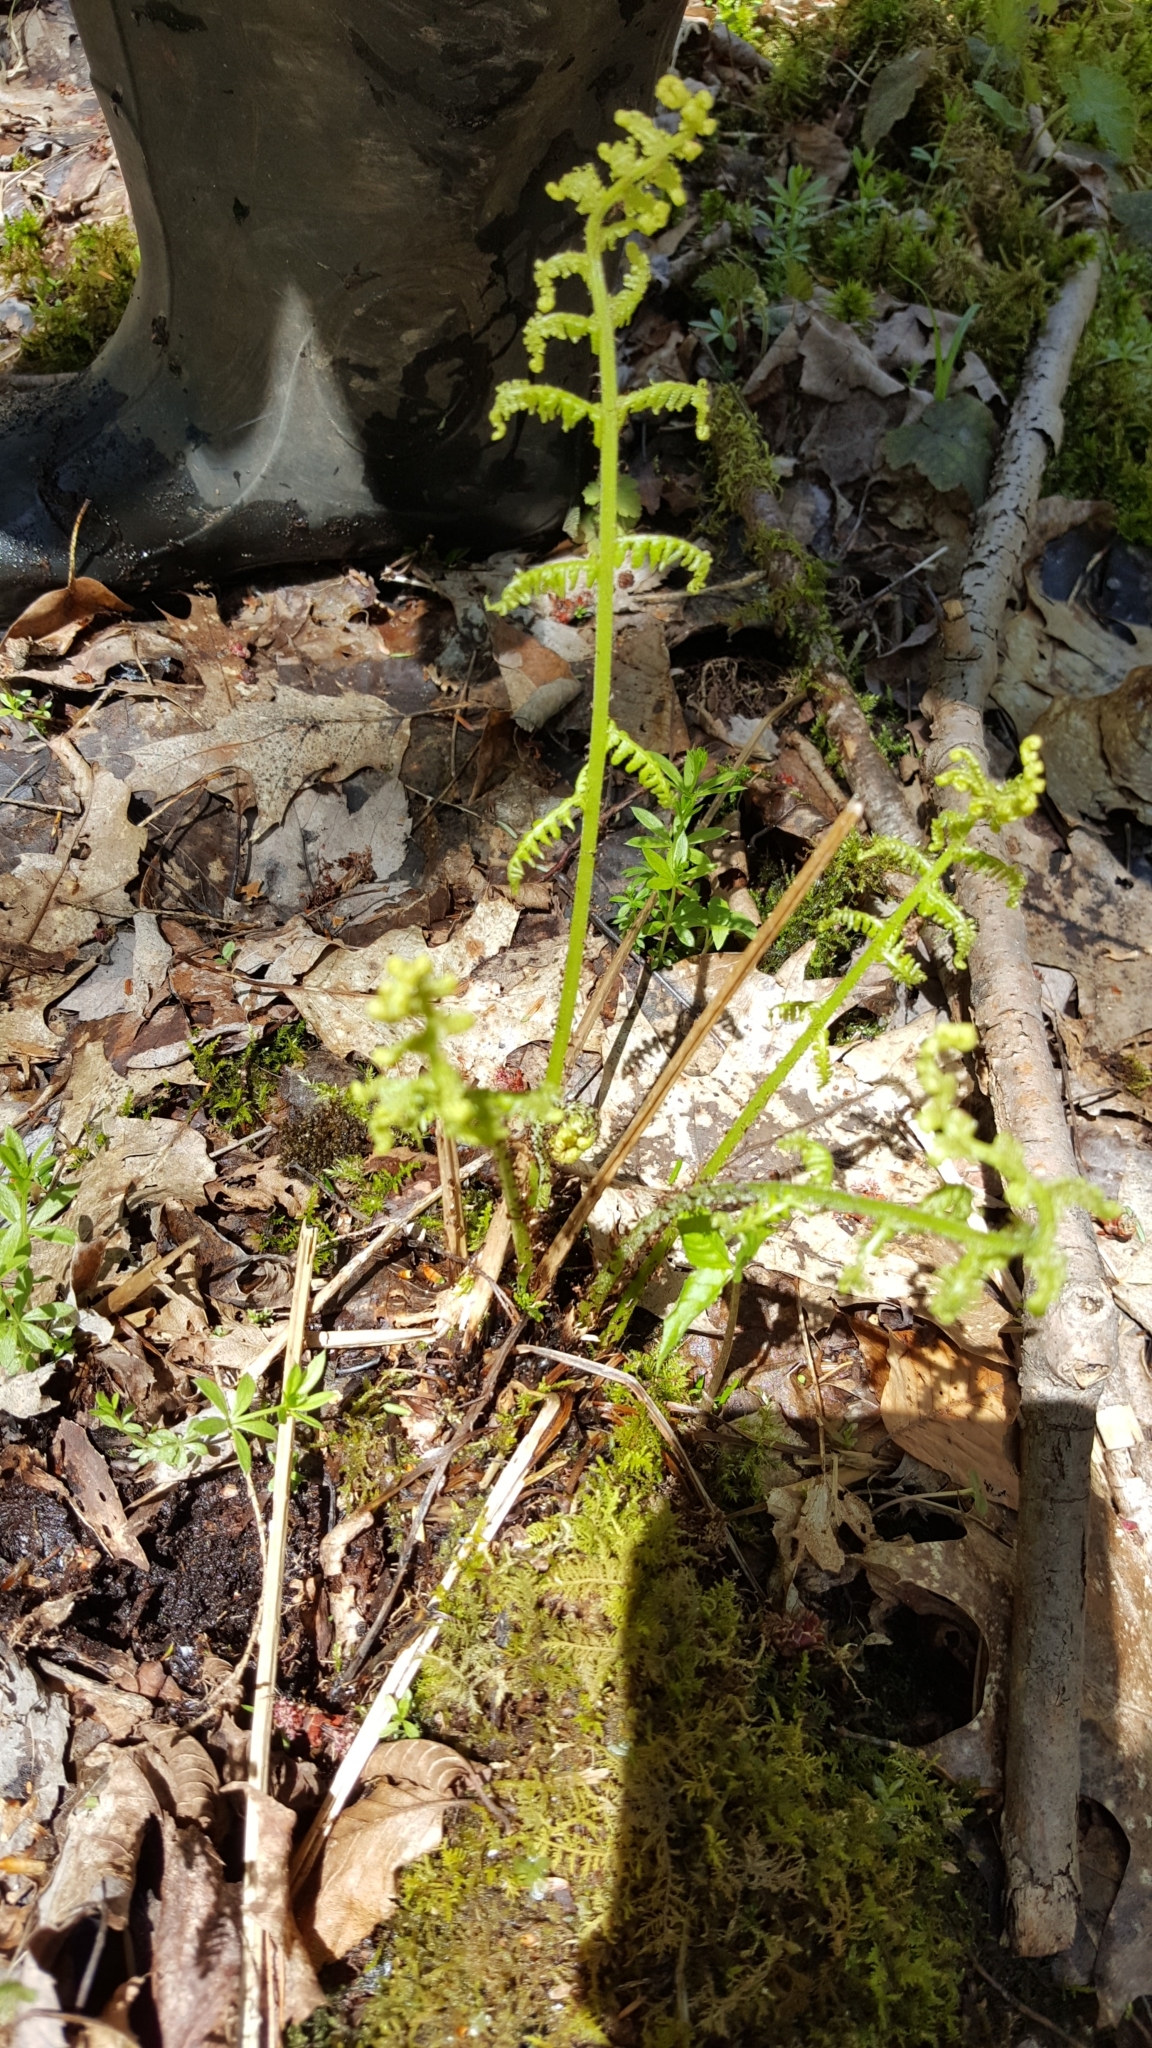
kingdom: Plantae
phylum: Tracheophyta
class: Polypodiopsida
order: Polypodiales
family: Athyriaceae
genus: Athyrium
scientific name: Athyrium angustum
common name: Northern lady fern
